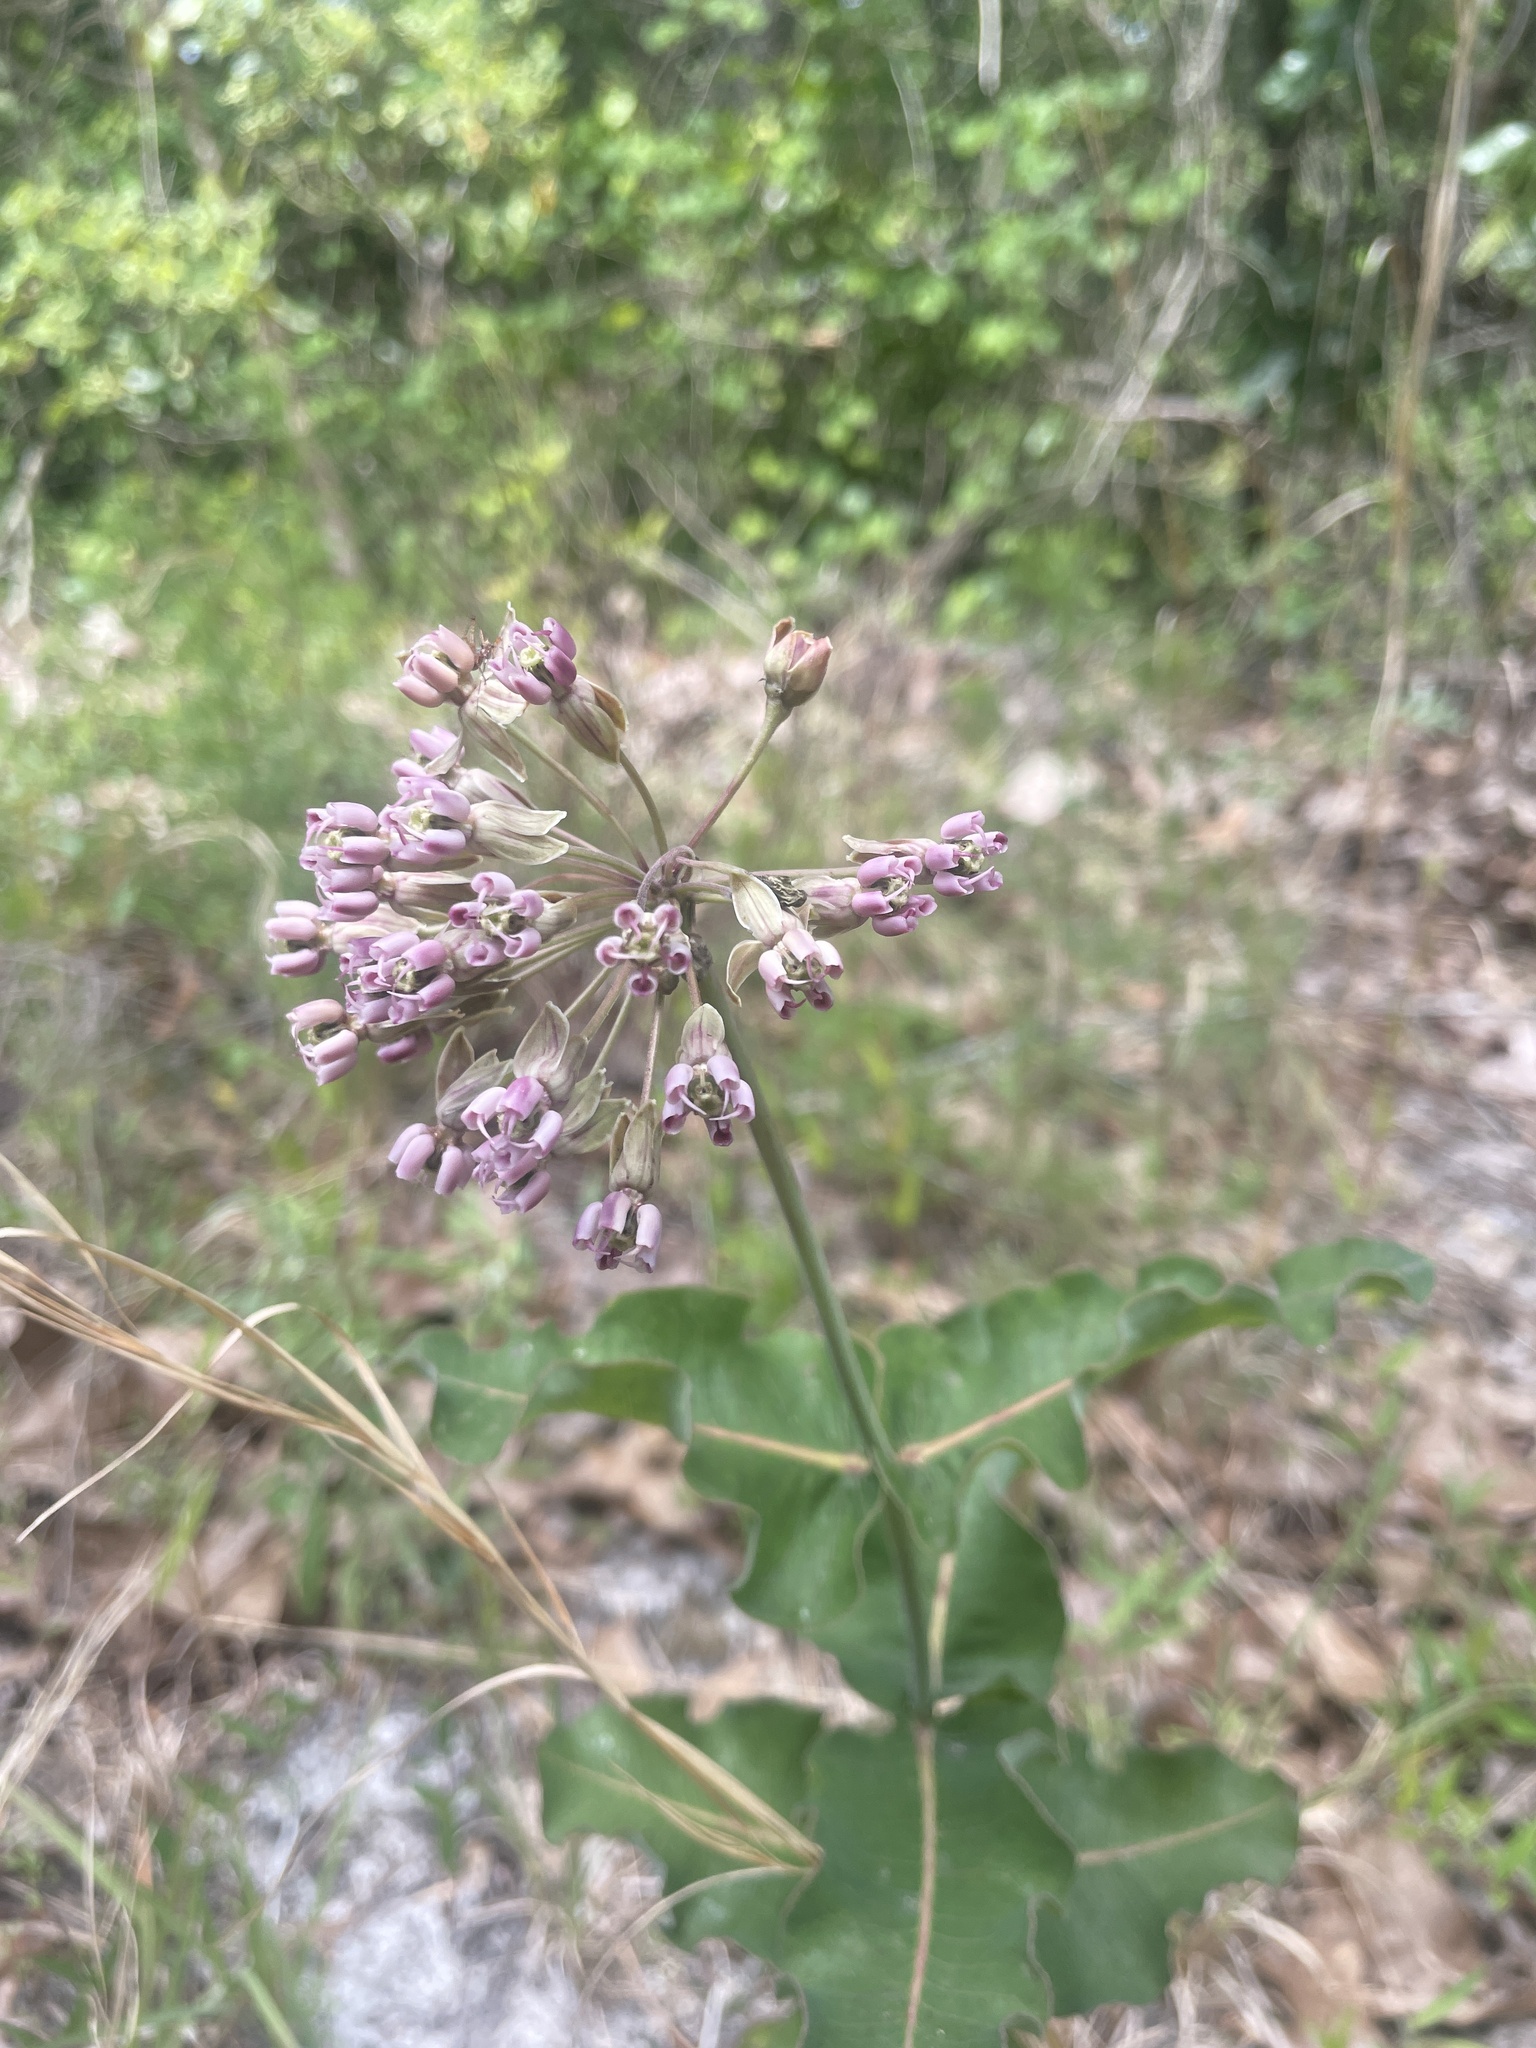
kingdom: Plantae
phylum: Tracheophyta
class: Magnoliopsida
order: Gentianales
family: Apocynaceae
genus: Asclepias
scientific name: Asclepias amplexicaulis
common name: Blunt-leaf milkweed
